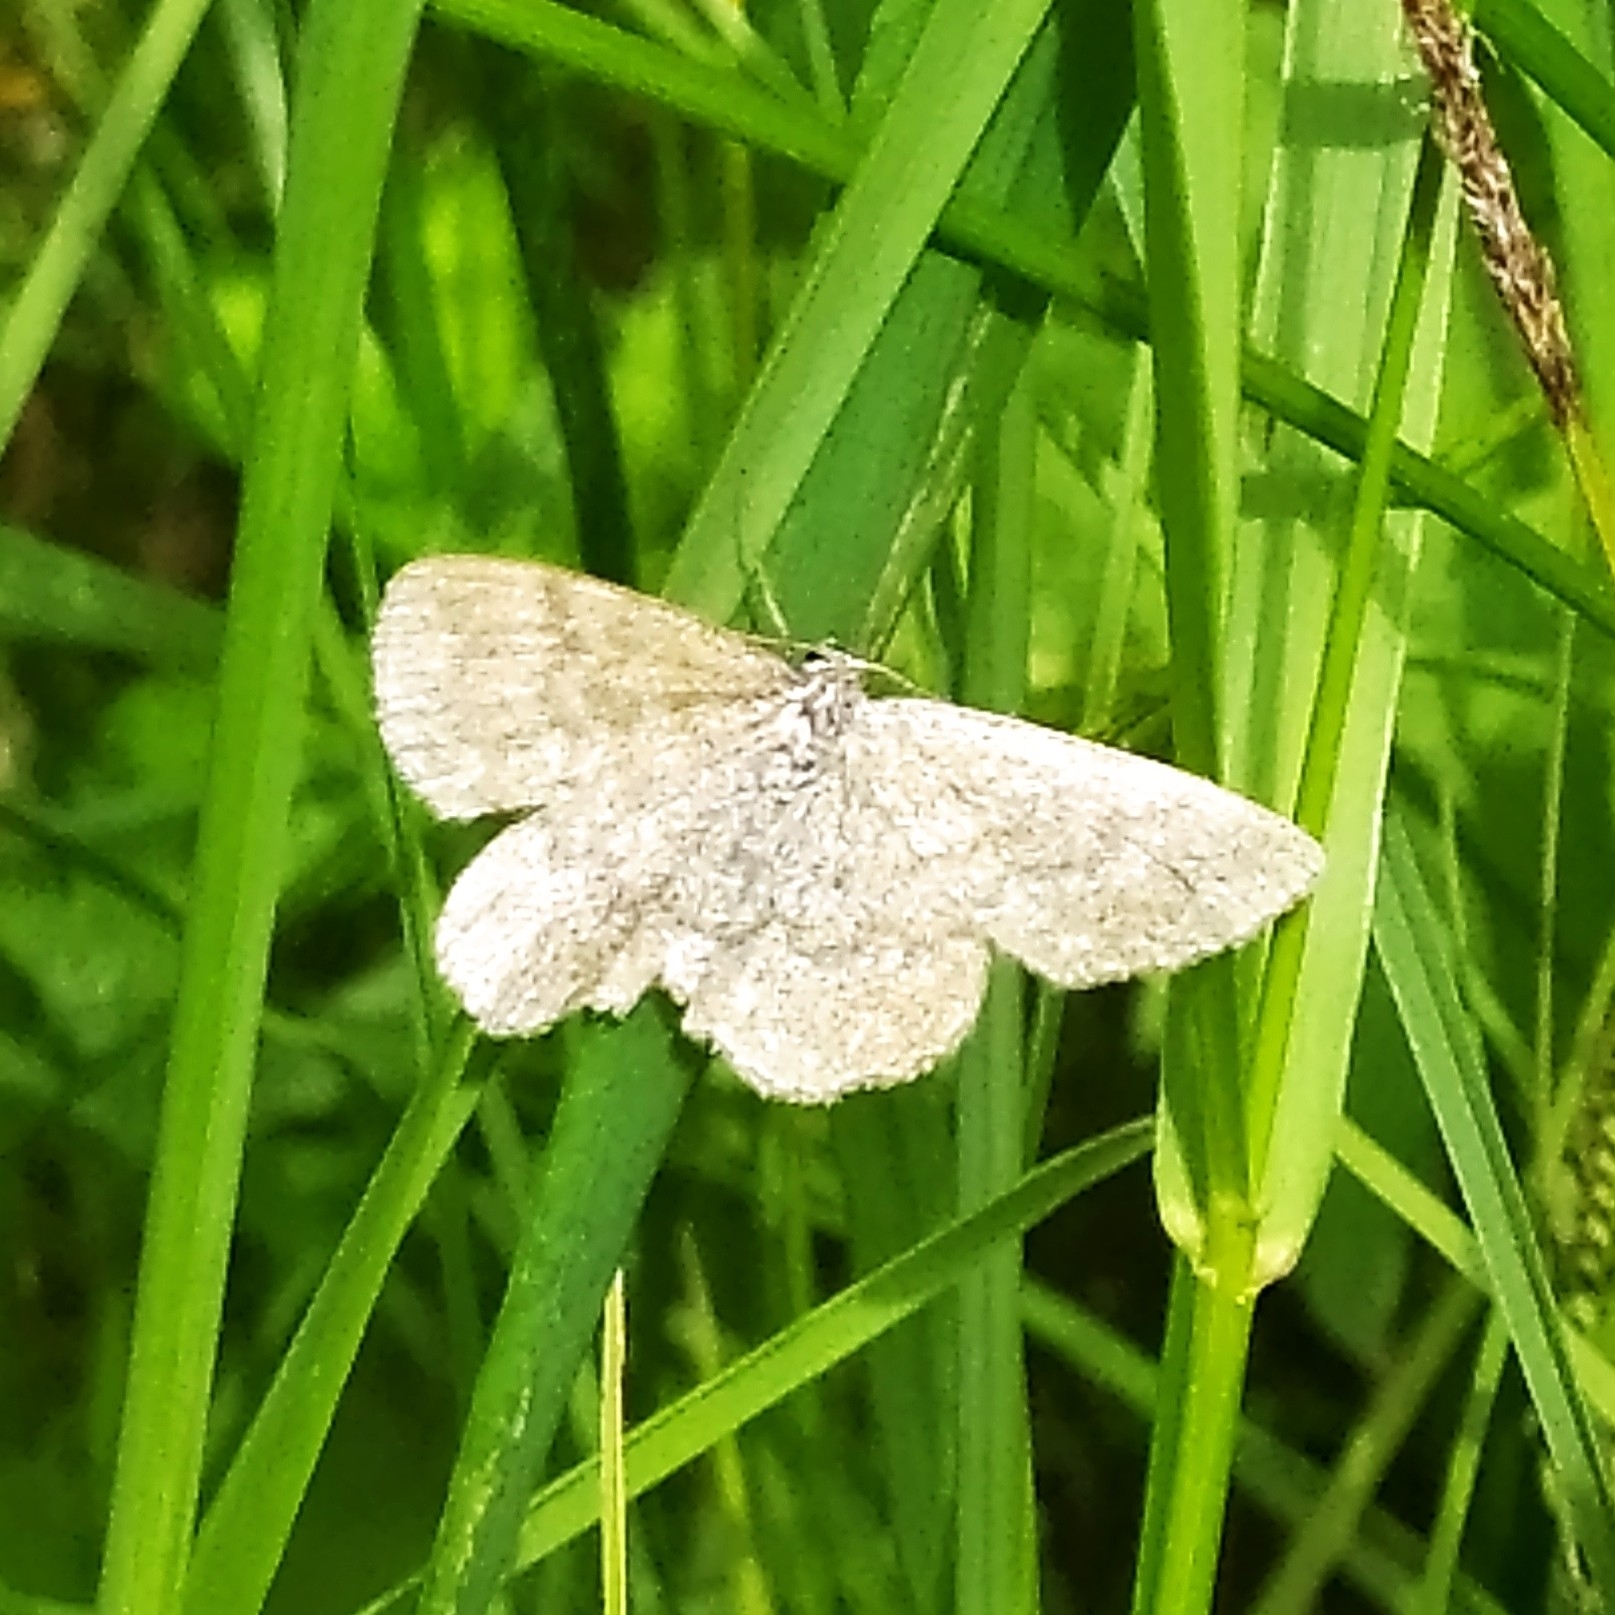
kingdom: Animalia
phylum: Arthropoda
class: Insecta
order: Lepidoptera
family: Geometridae
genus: Scopula
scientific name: Scopula immorata
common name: Lewes wave
